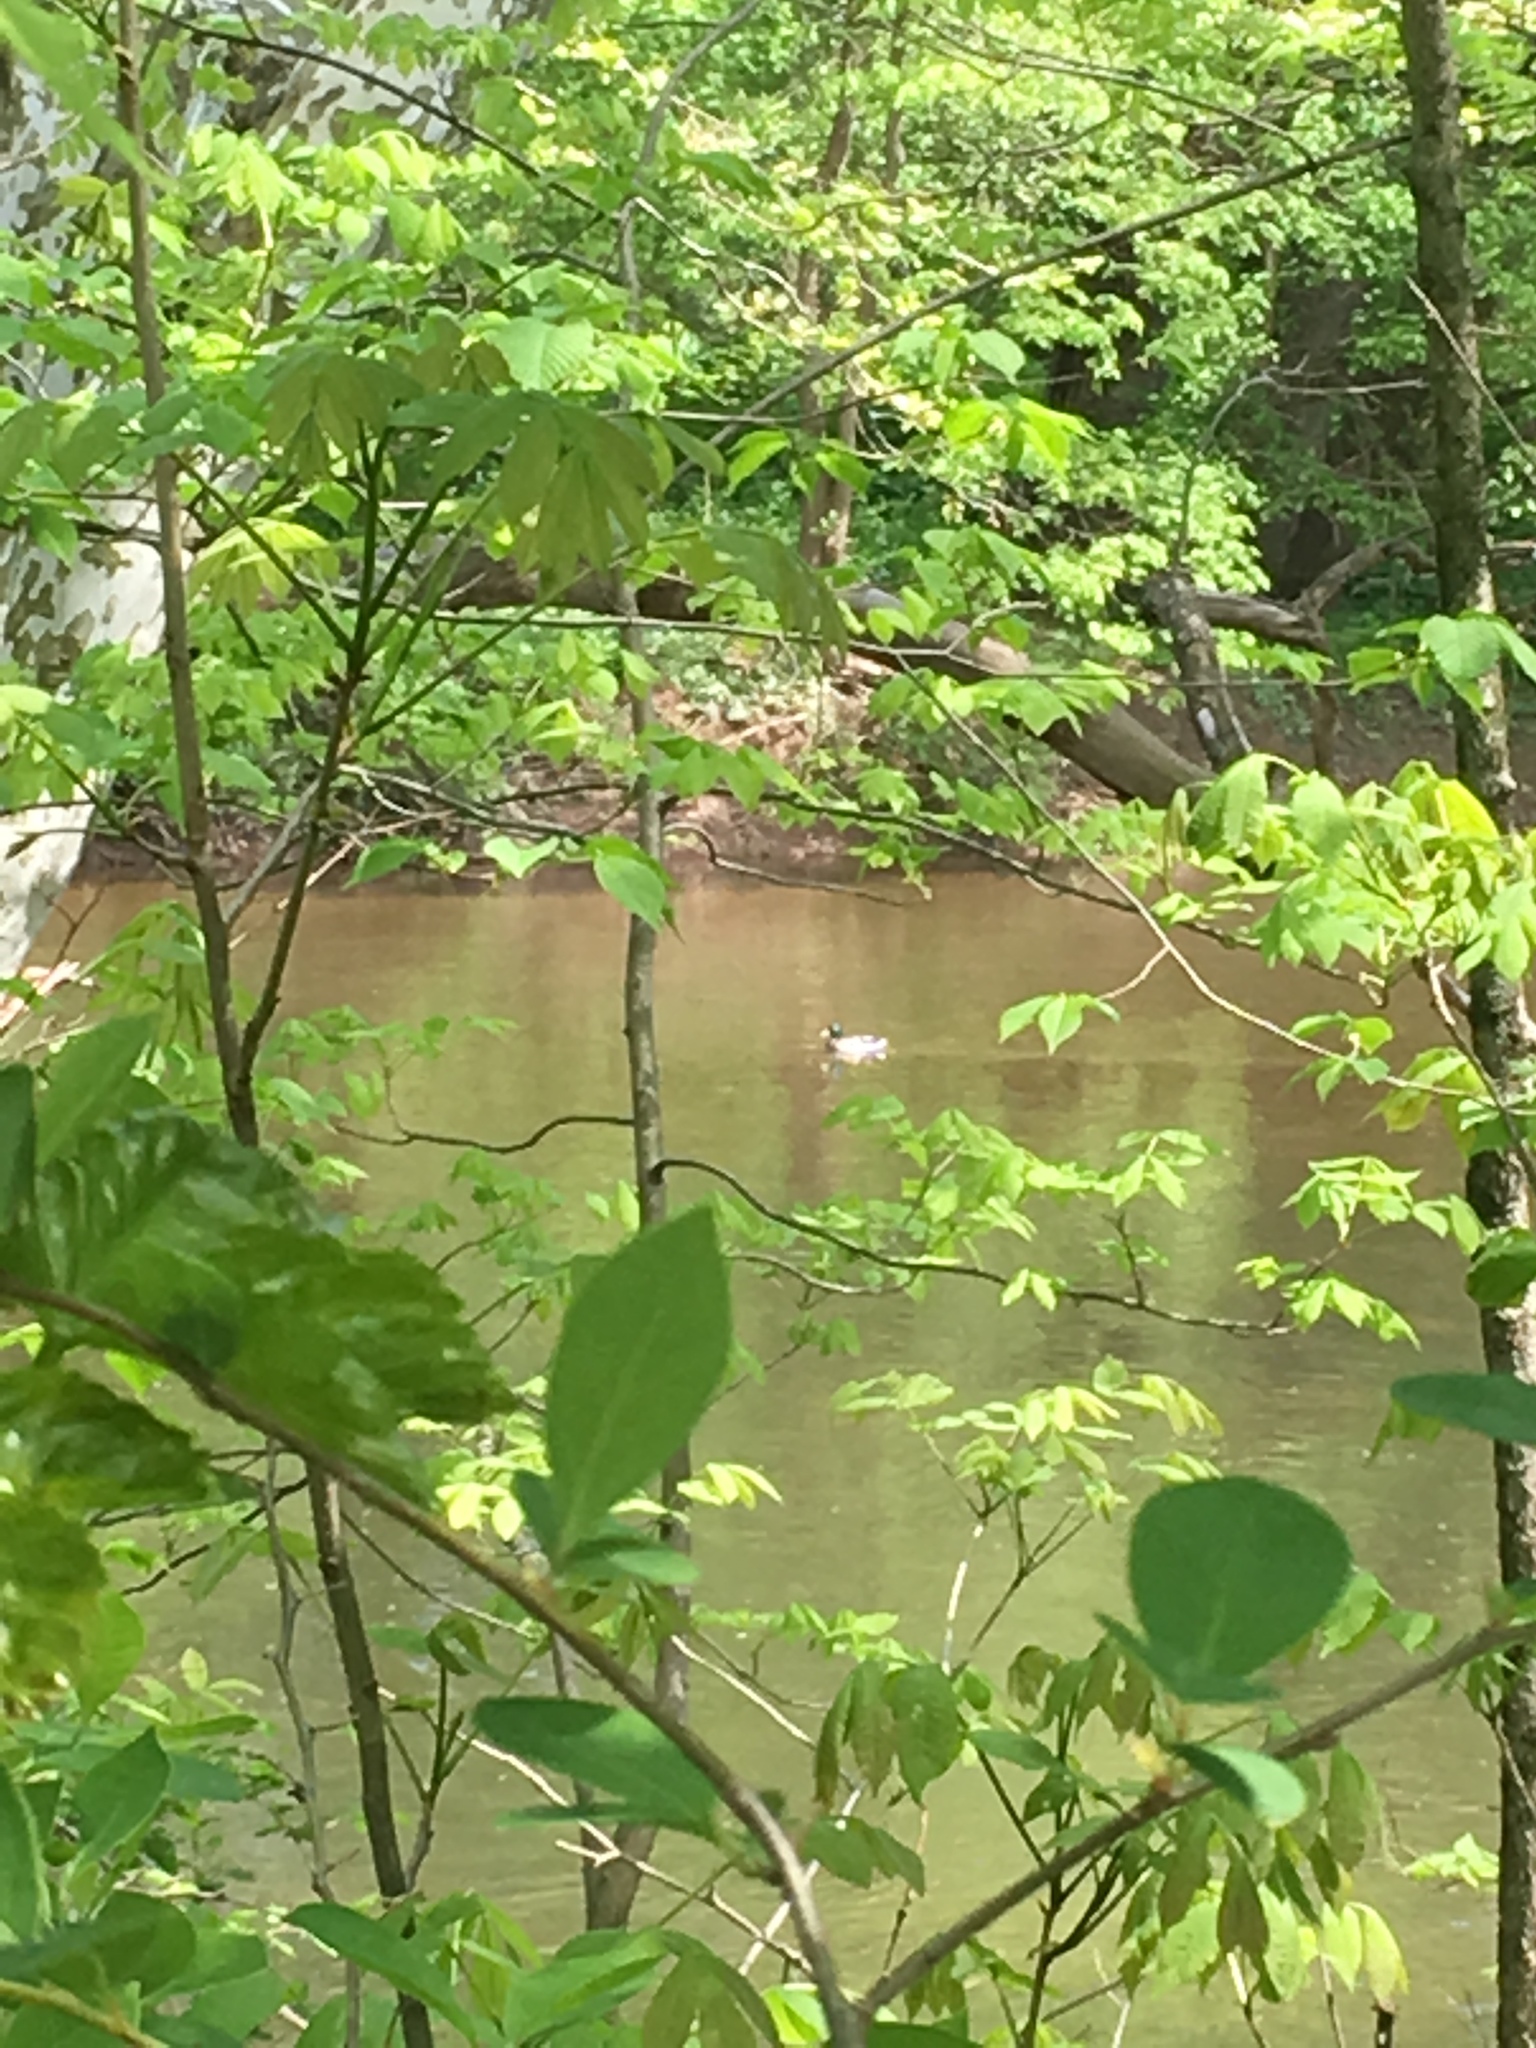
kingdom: Animalia
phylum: Chordata
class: Aves
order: Anseriformes
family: Anatidae
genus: Anas
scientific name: Anas platyrhynchos
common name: Mallard
